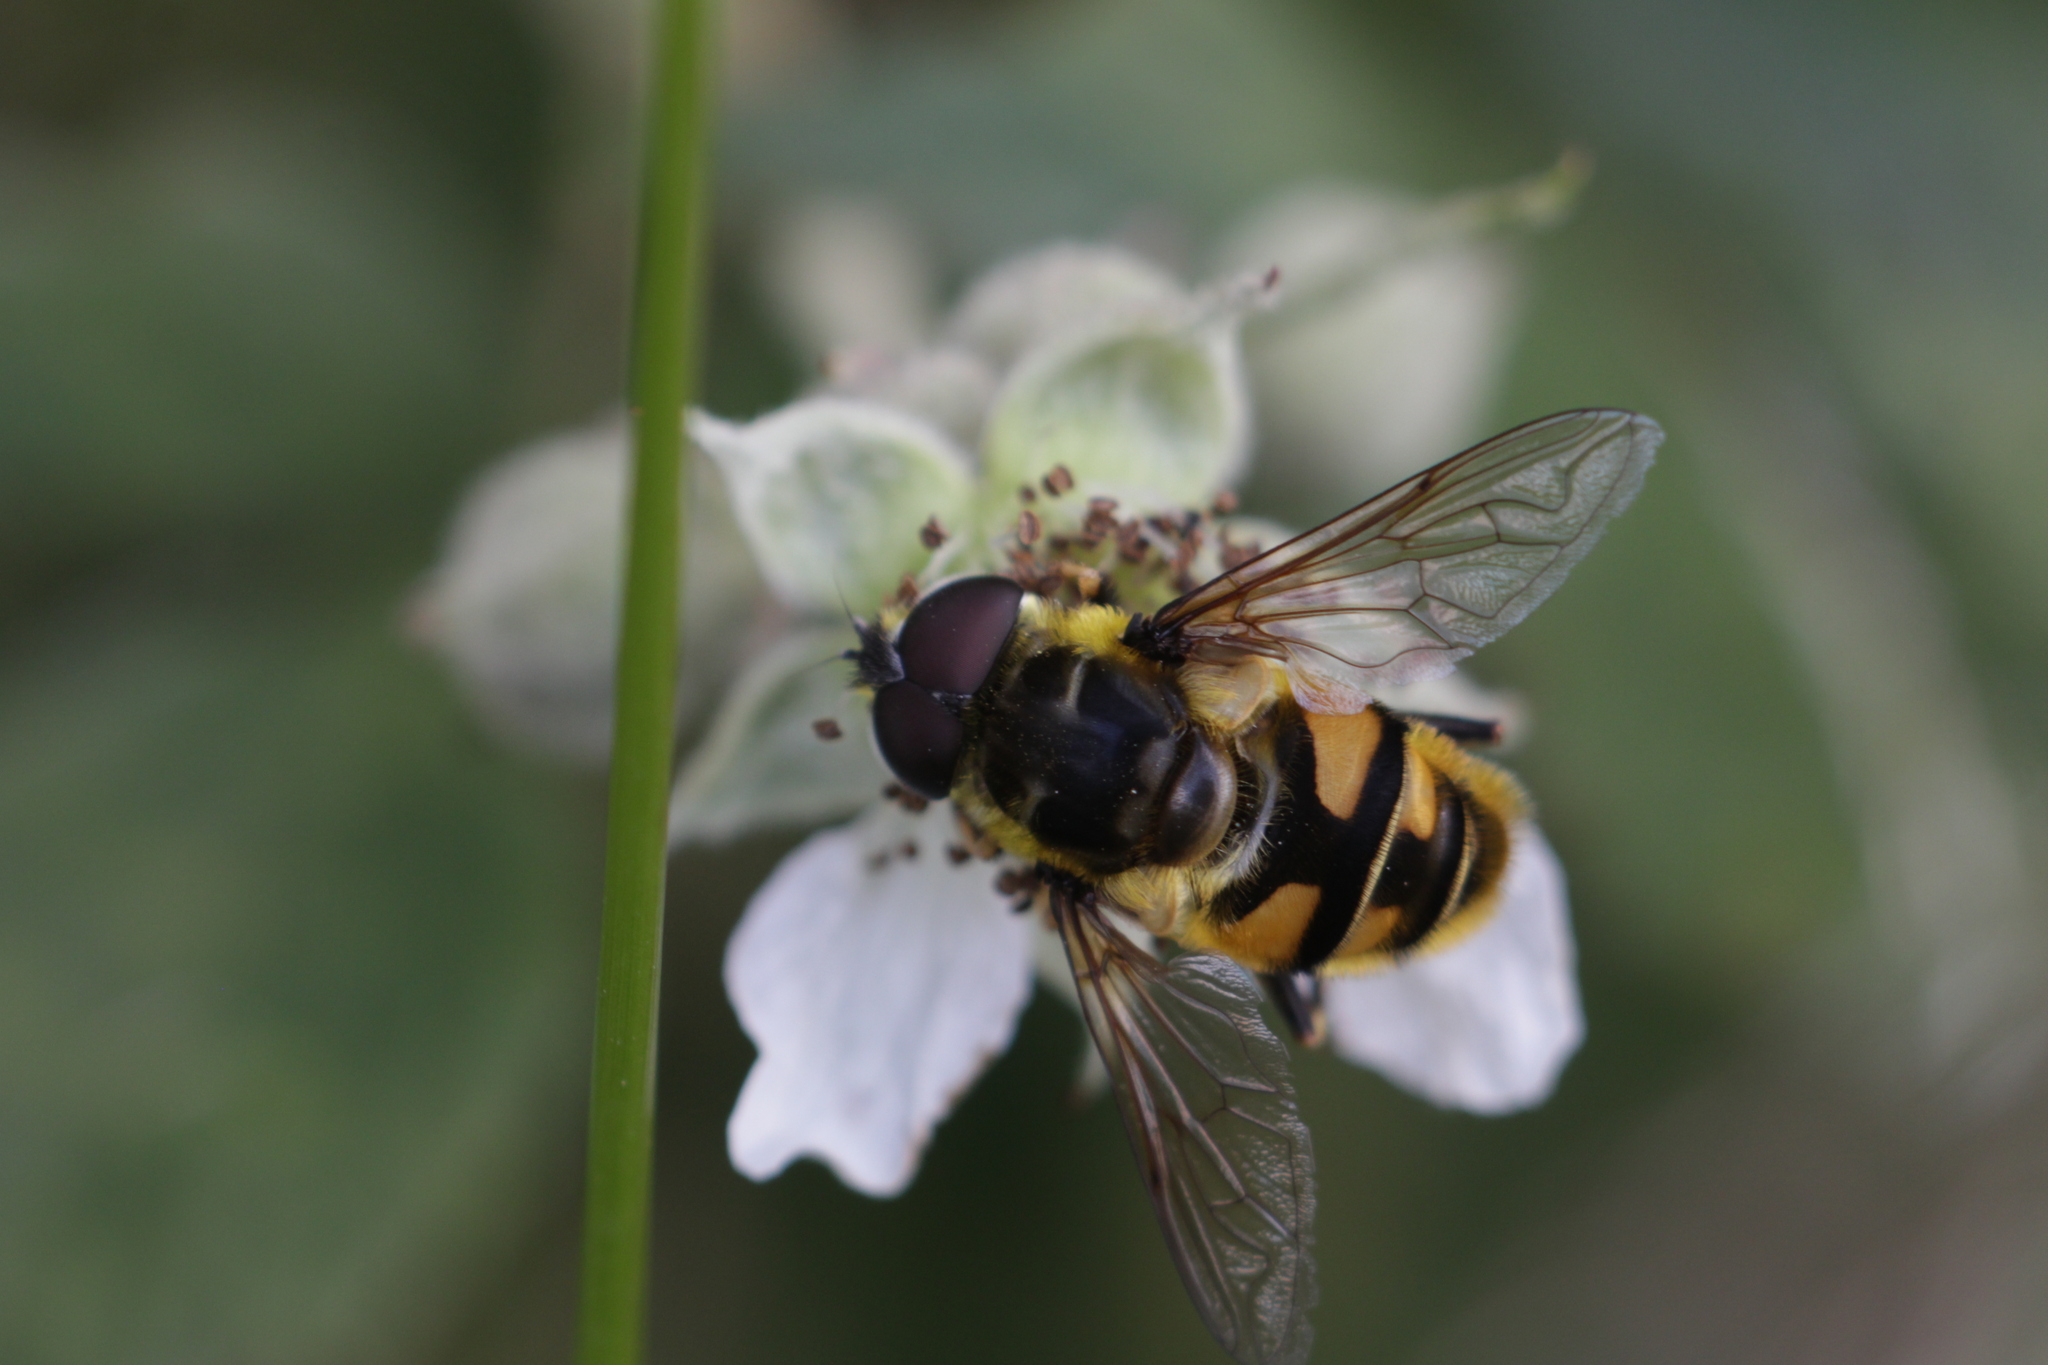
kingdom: Animalia
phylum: Arthropoda
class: Insecta
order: Diptera
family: Syrphidae
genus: Myathropa
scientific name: Myathropa florea
